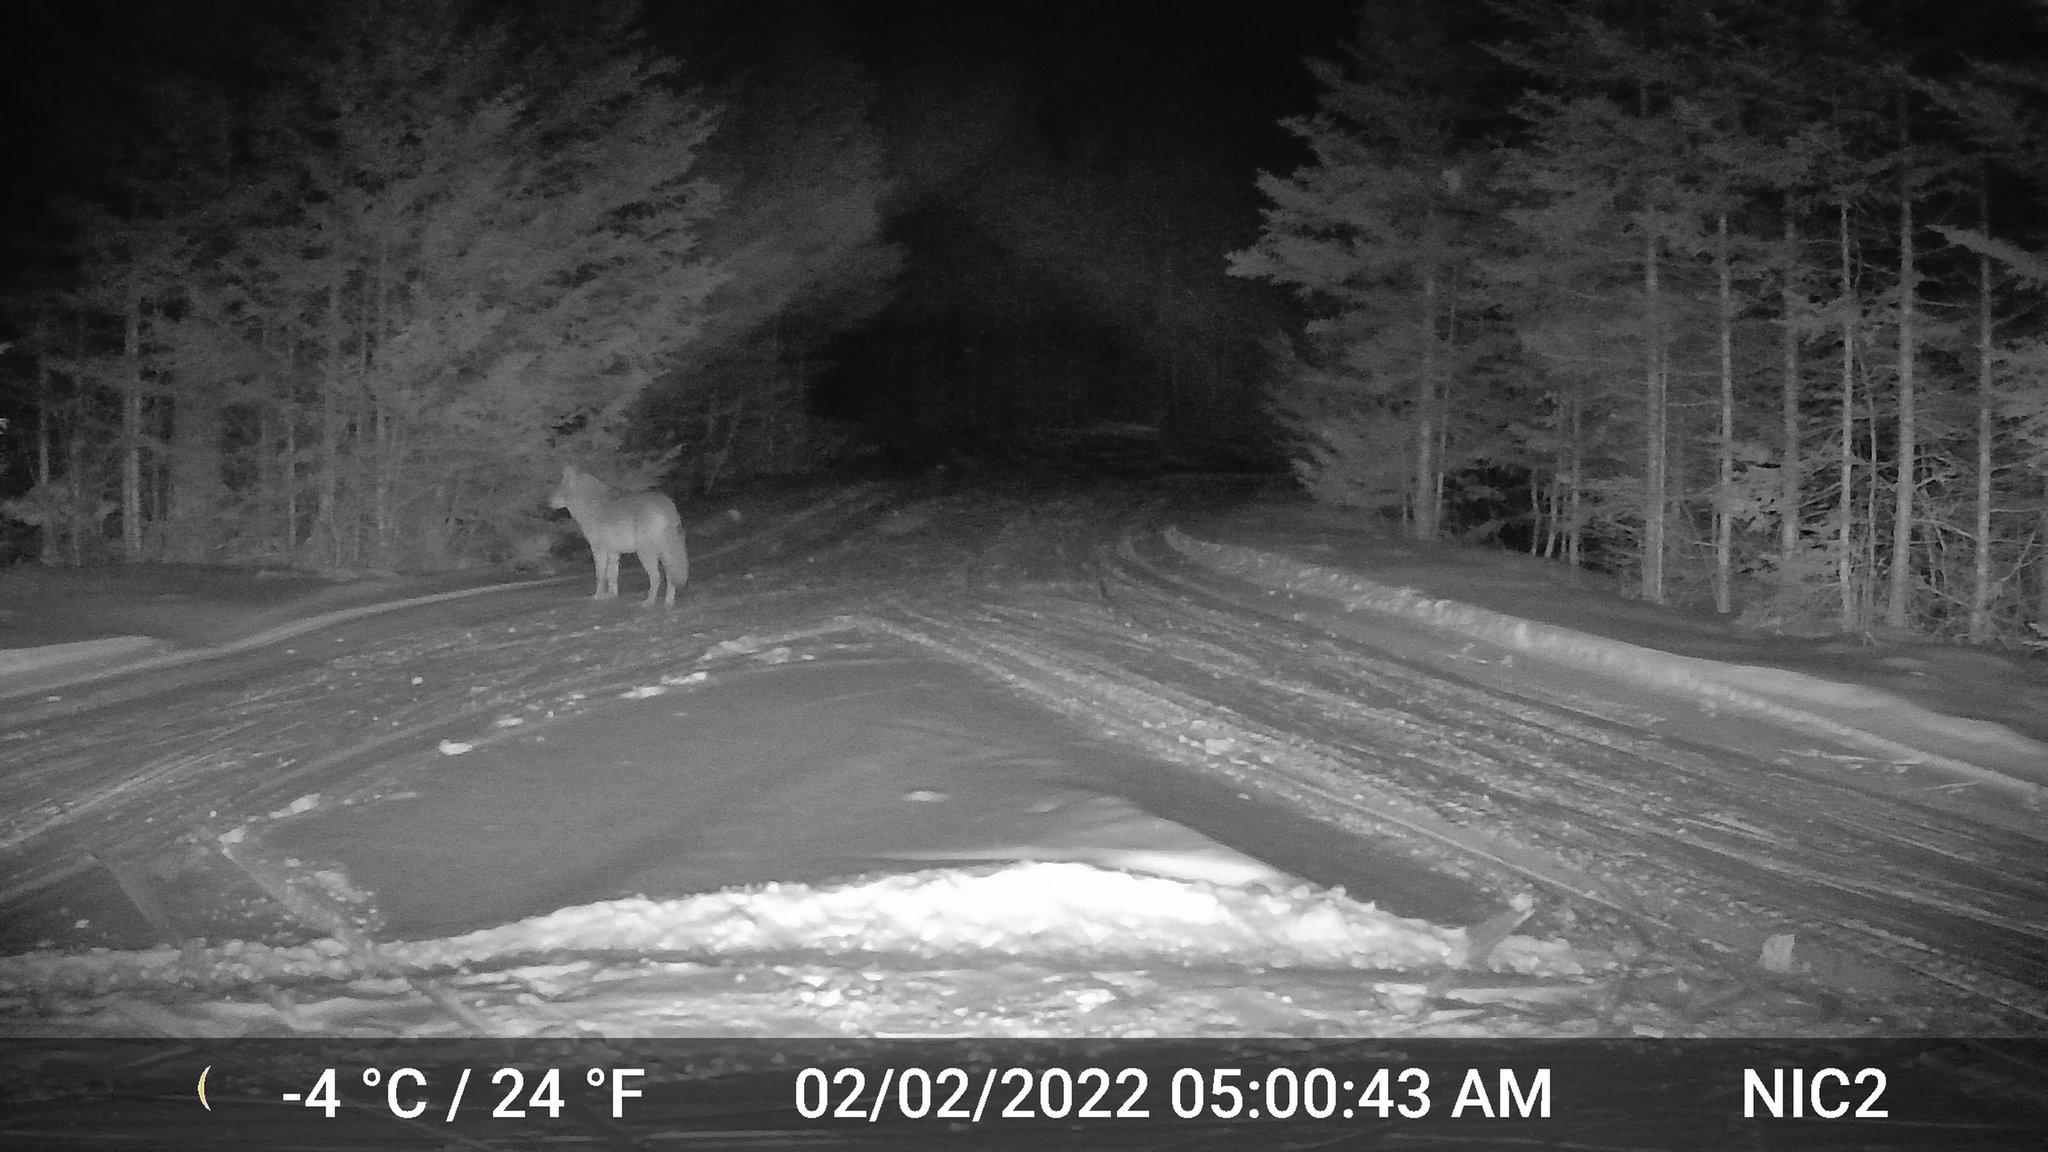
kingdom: Animalia
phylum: Chordata
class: Mammalia
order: Carnivora
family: Canidae
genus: Canis
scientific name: Canis latrans
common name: Coyote
